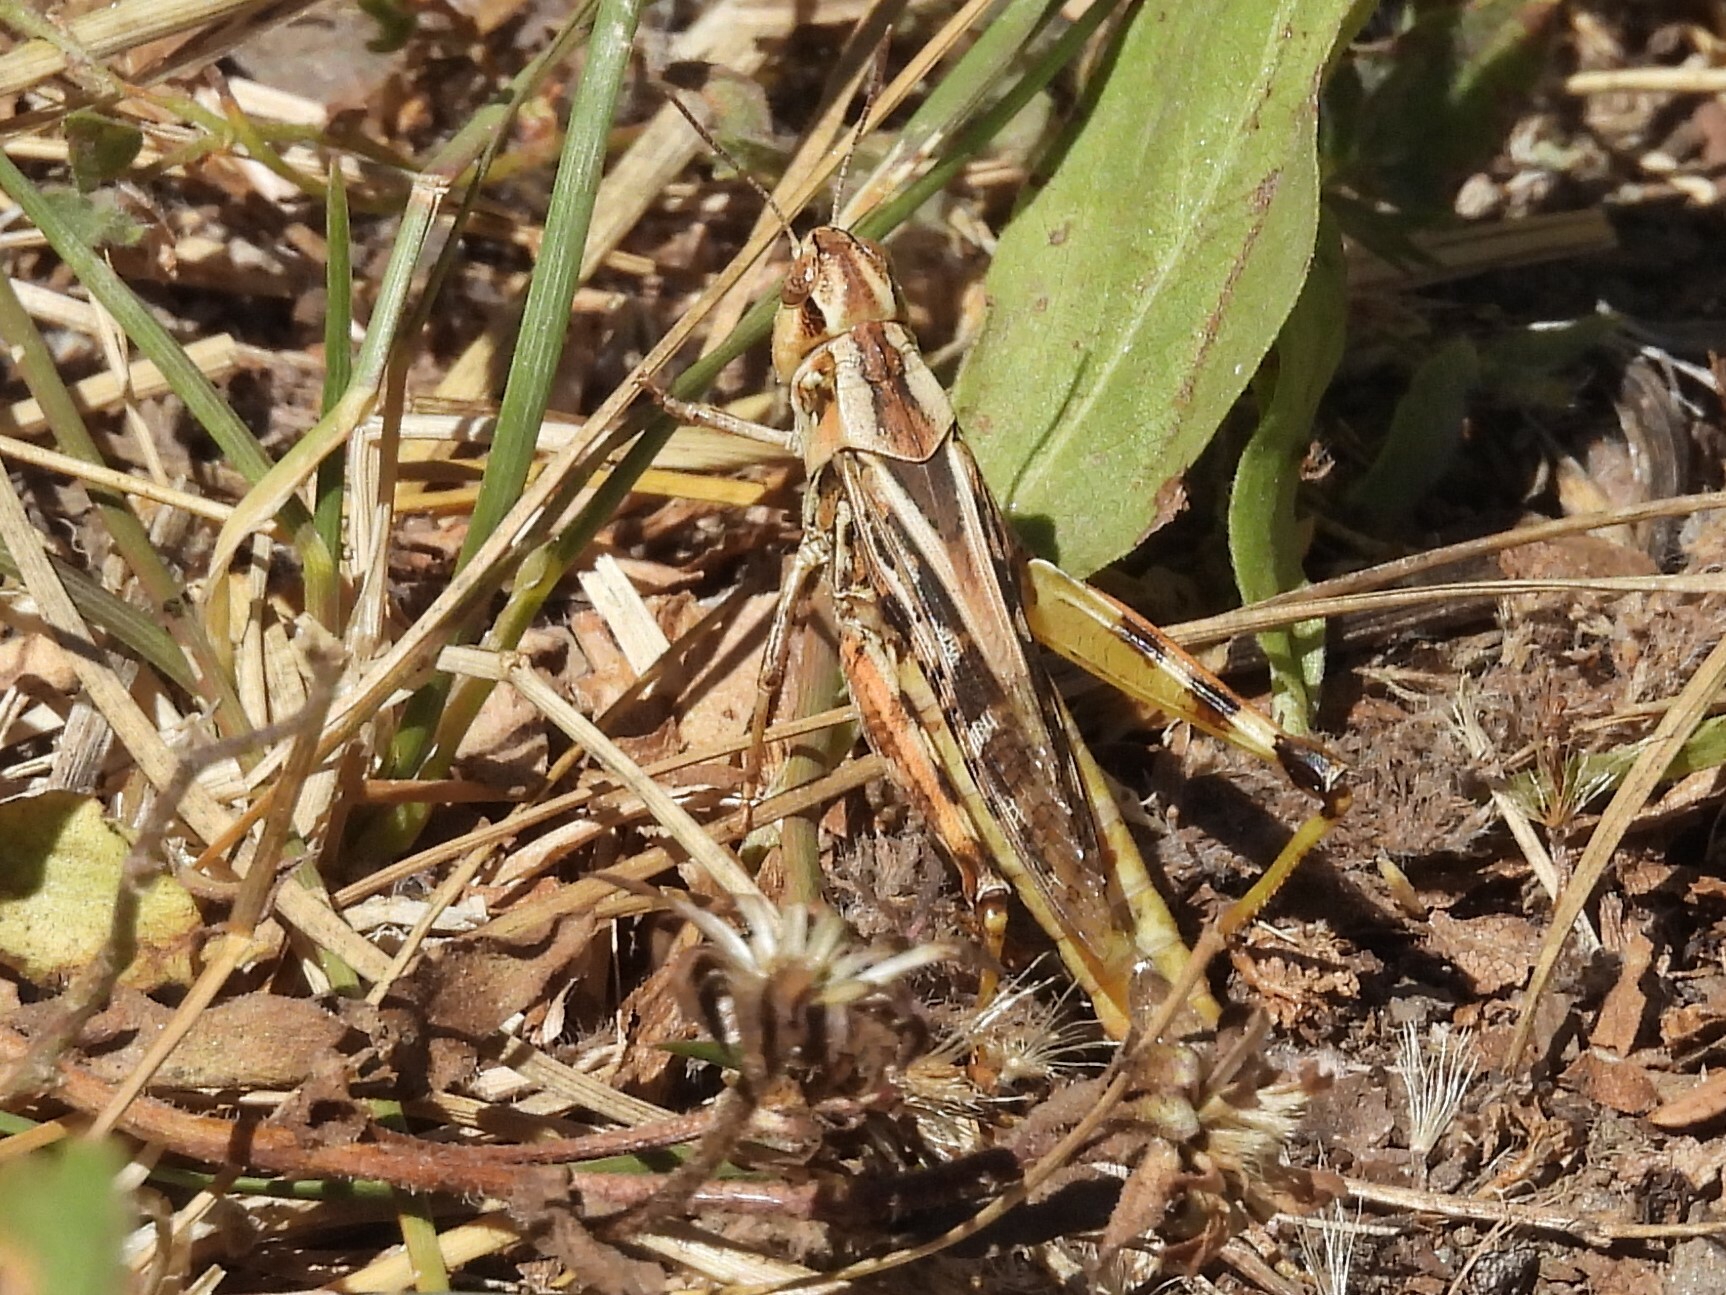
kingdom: Animalia
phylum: Arthropoda
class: Insecta
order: Orthoptera
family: Acrididae
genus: Camnula
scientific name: Camnula pellucida
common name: Clear-winged grasshopper
